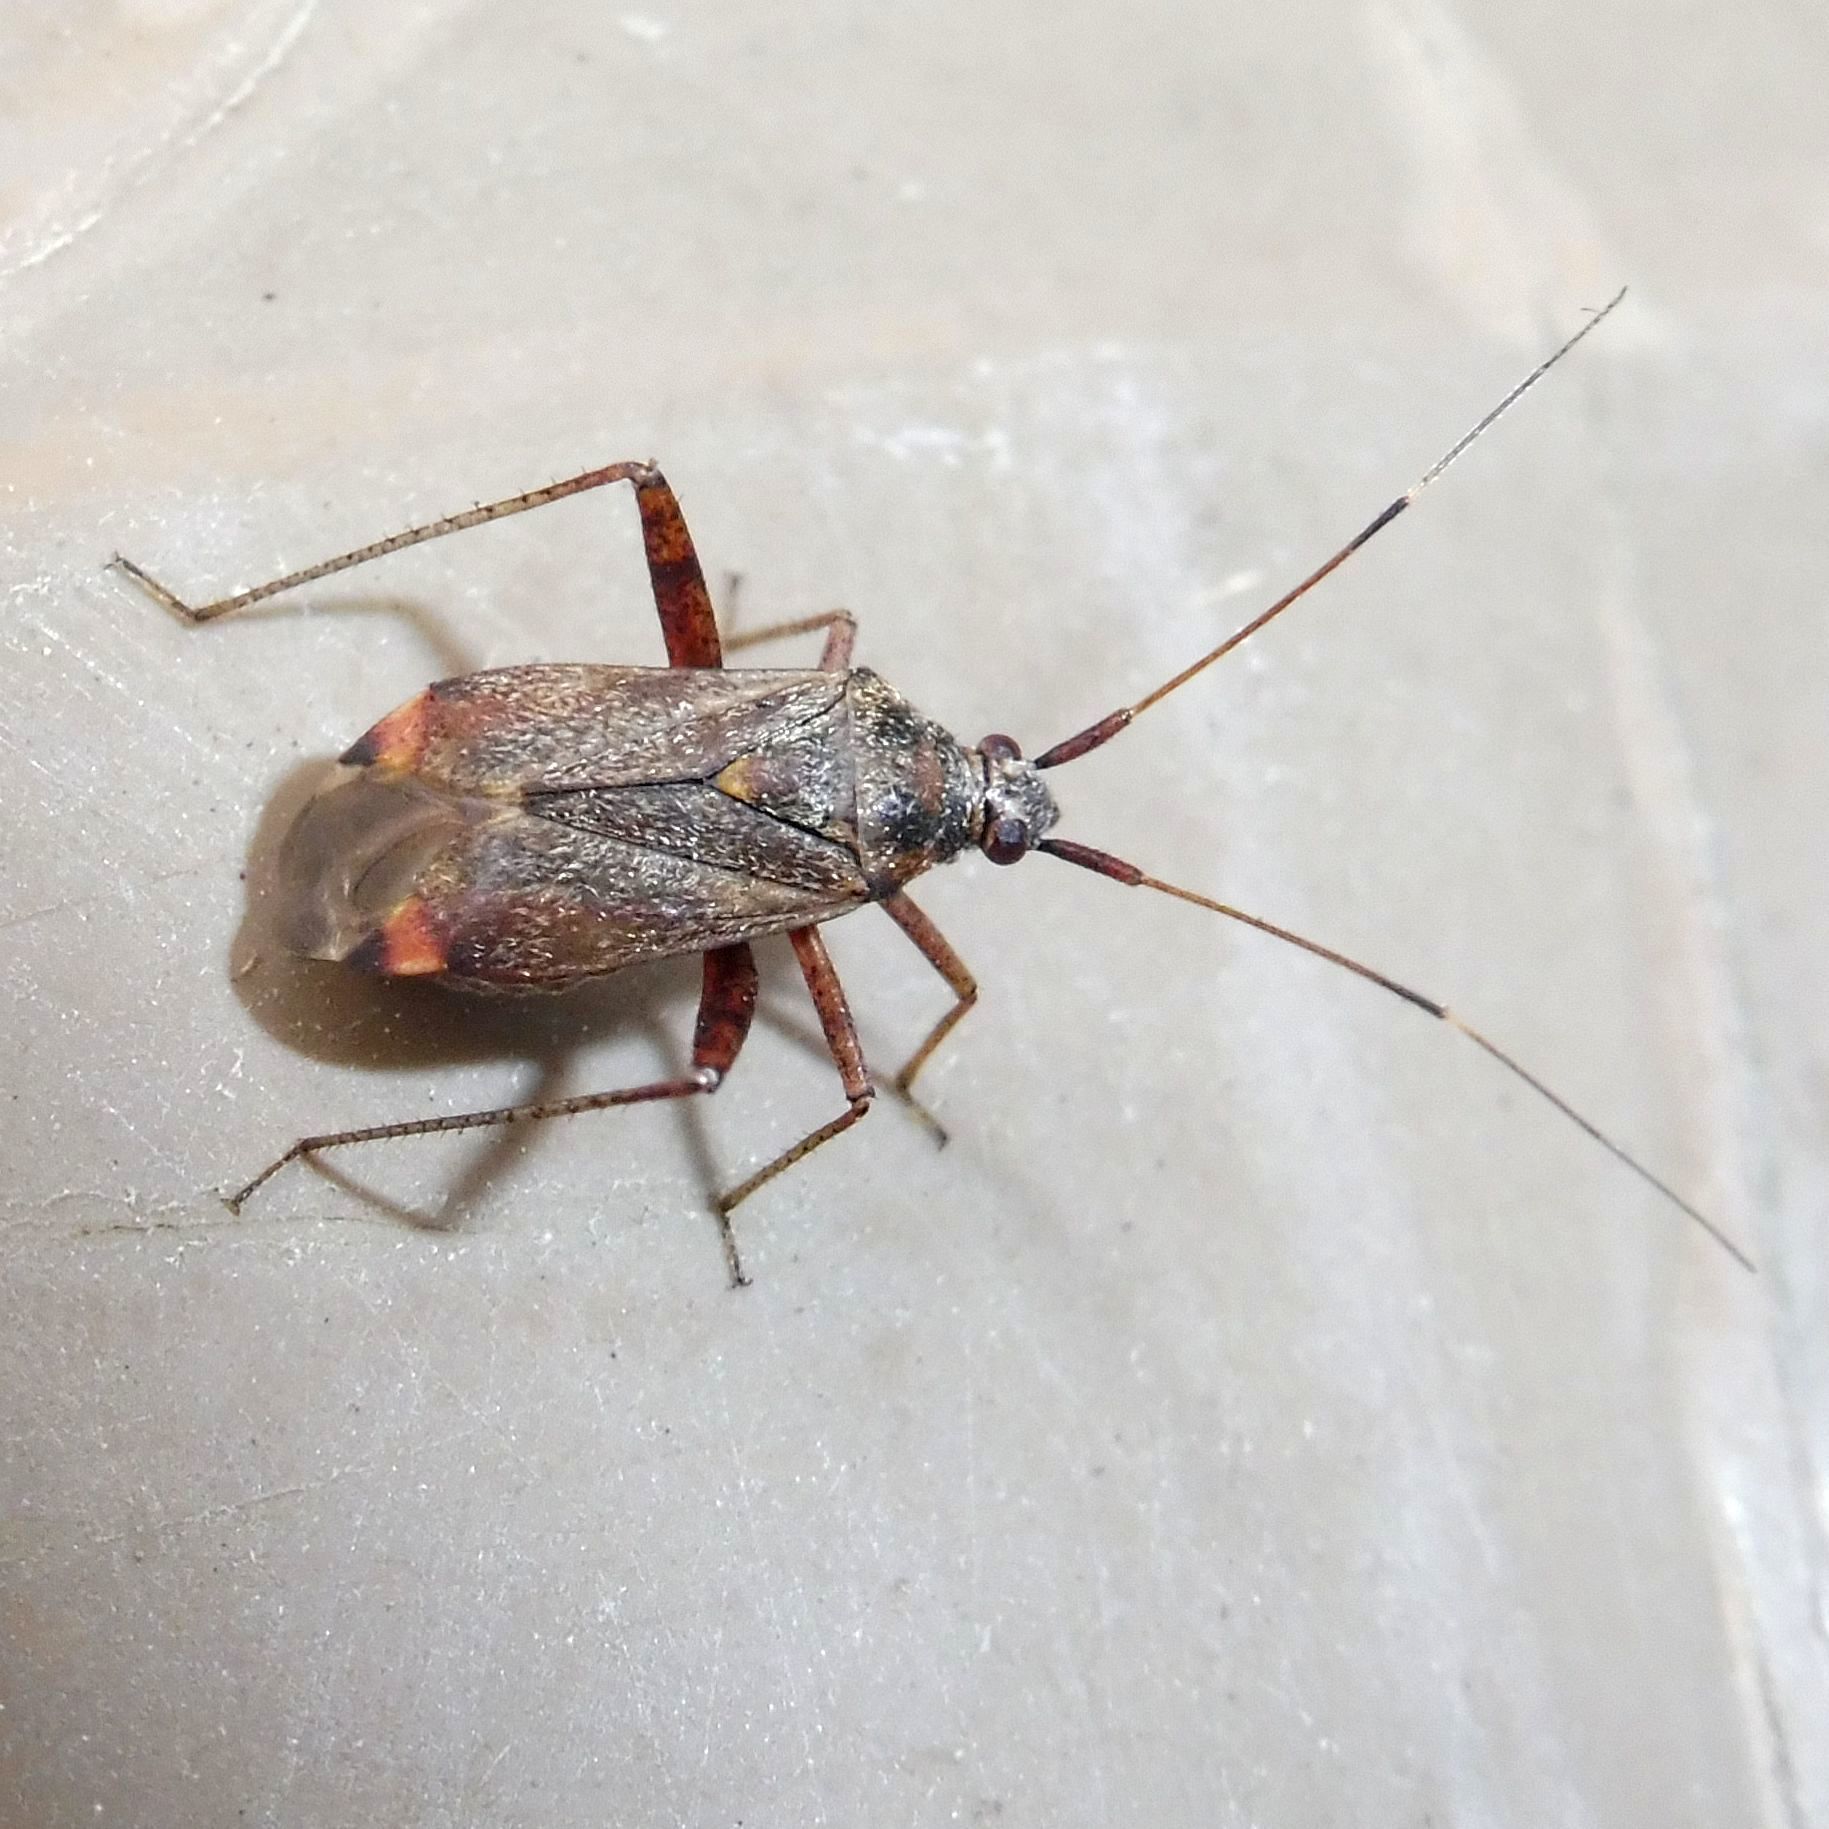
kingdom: Animalia
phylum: Arthropoda
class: Insecta
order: Hemiptera
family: Miridae
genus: Closterotomus
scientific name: Closterotomus fulvomaculatus
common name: Spotted plant bug
